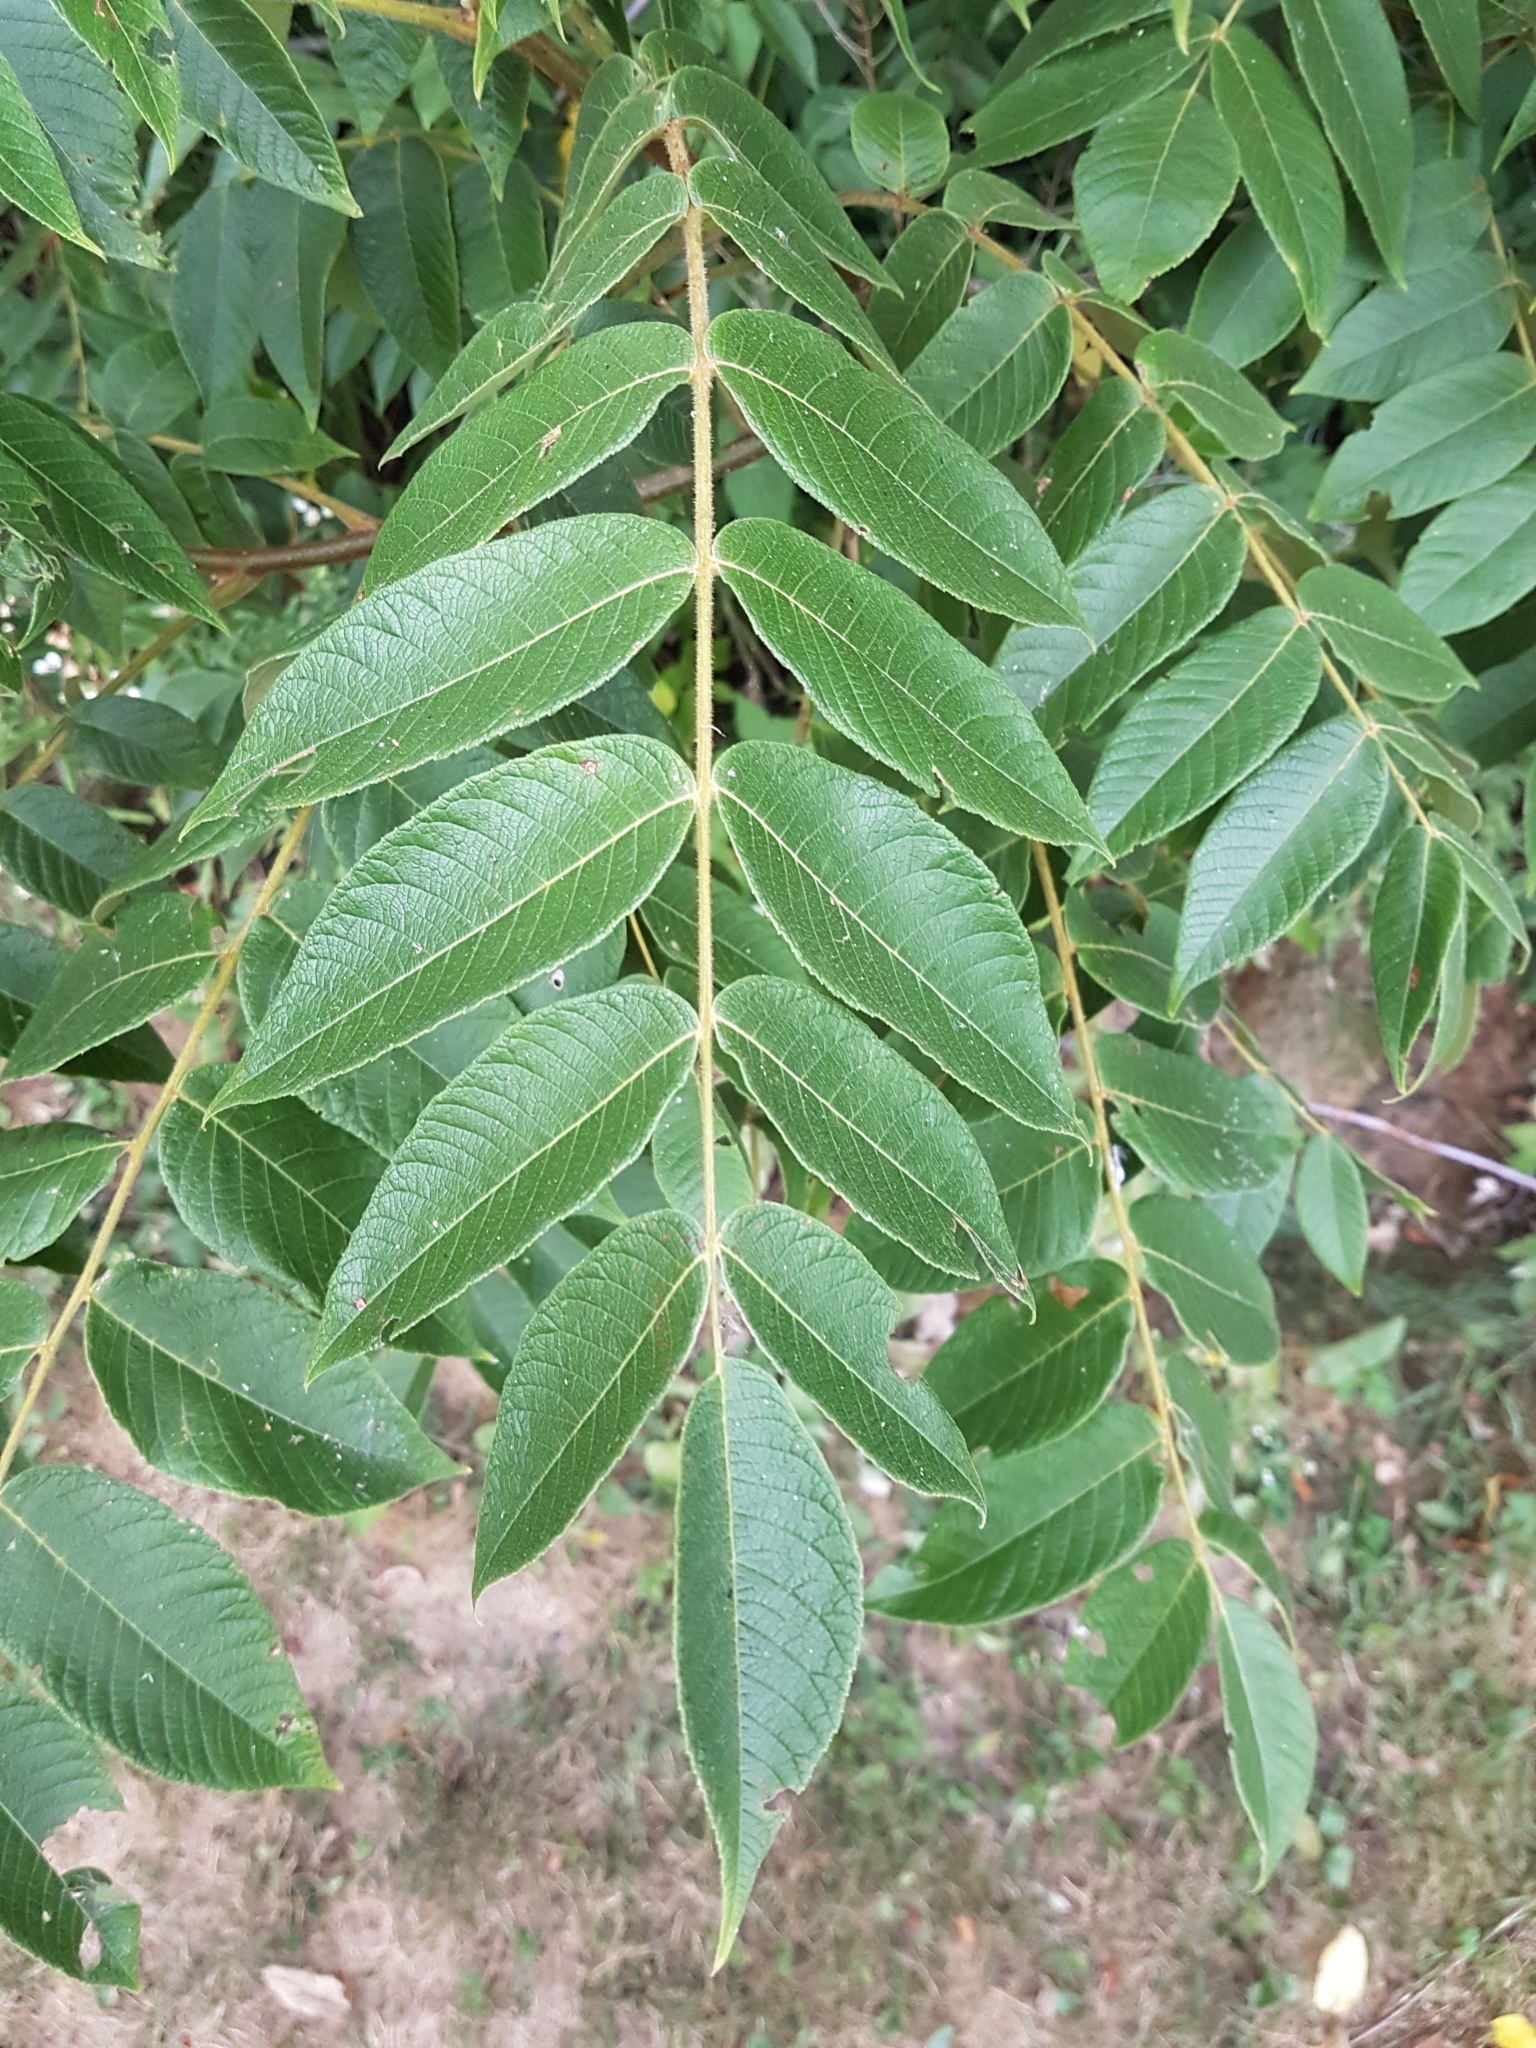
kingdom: Plantae
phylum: Tracheophyta
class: Magnoliopsida
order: Fagales
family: Juglandaceae
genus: Juglans
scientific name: Juglans cinerea
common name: Butternut
